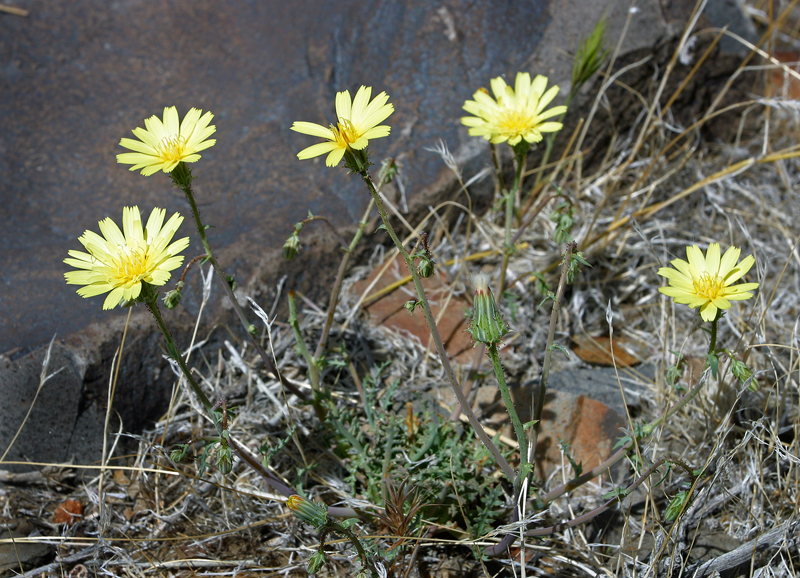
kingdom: Plantae
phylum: Tracheophyta
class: Magnoliopsida
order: Asterales
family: Asteraceae
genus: Calycoseris
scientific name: Calycoseris parryi
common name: Yellow tackstem
